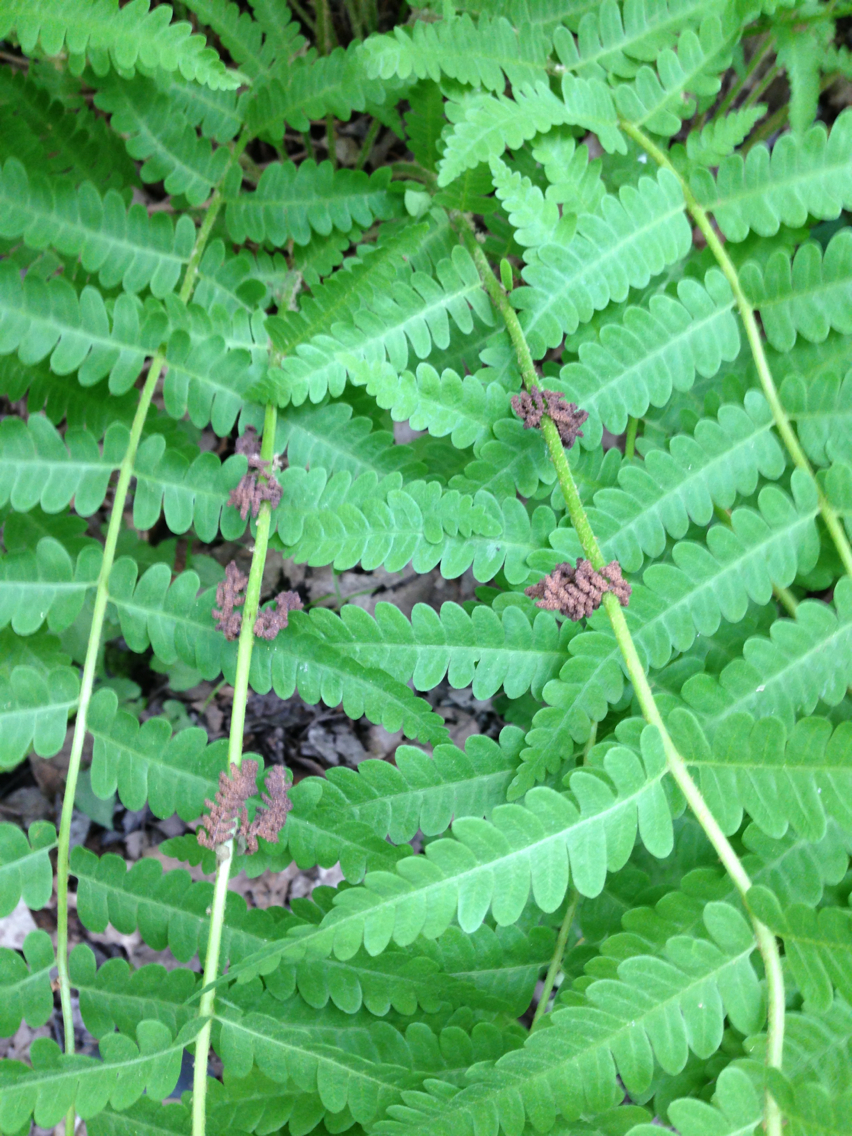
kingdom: Plantae
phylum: Tracheophyta
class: Polypodiopsida
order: Osmundales
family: Osmundaceae
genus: Claytosmunda
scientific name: Claytosmunda claytoniana
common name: Clayton's fern
